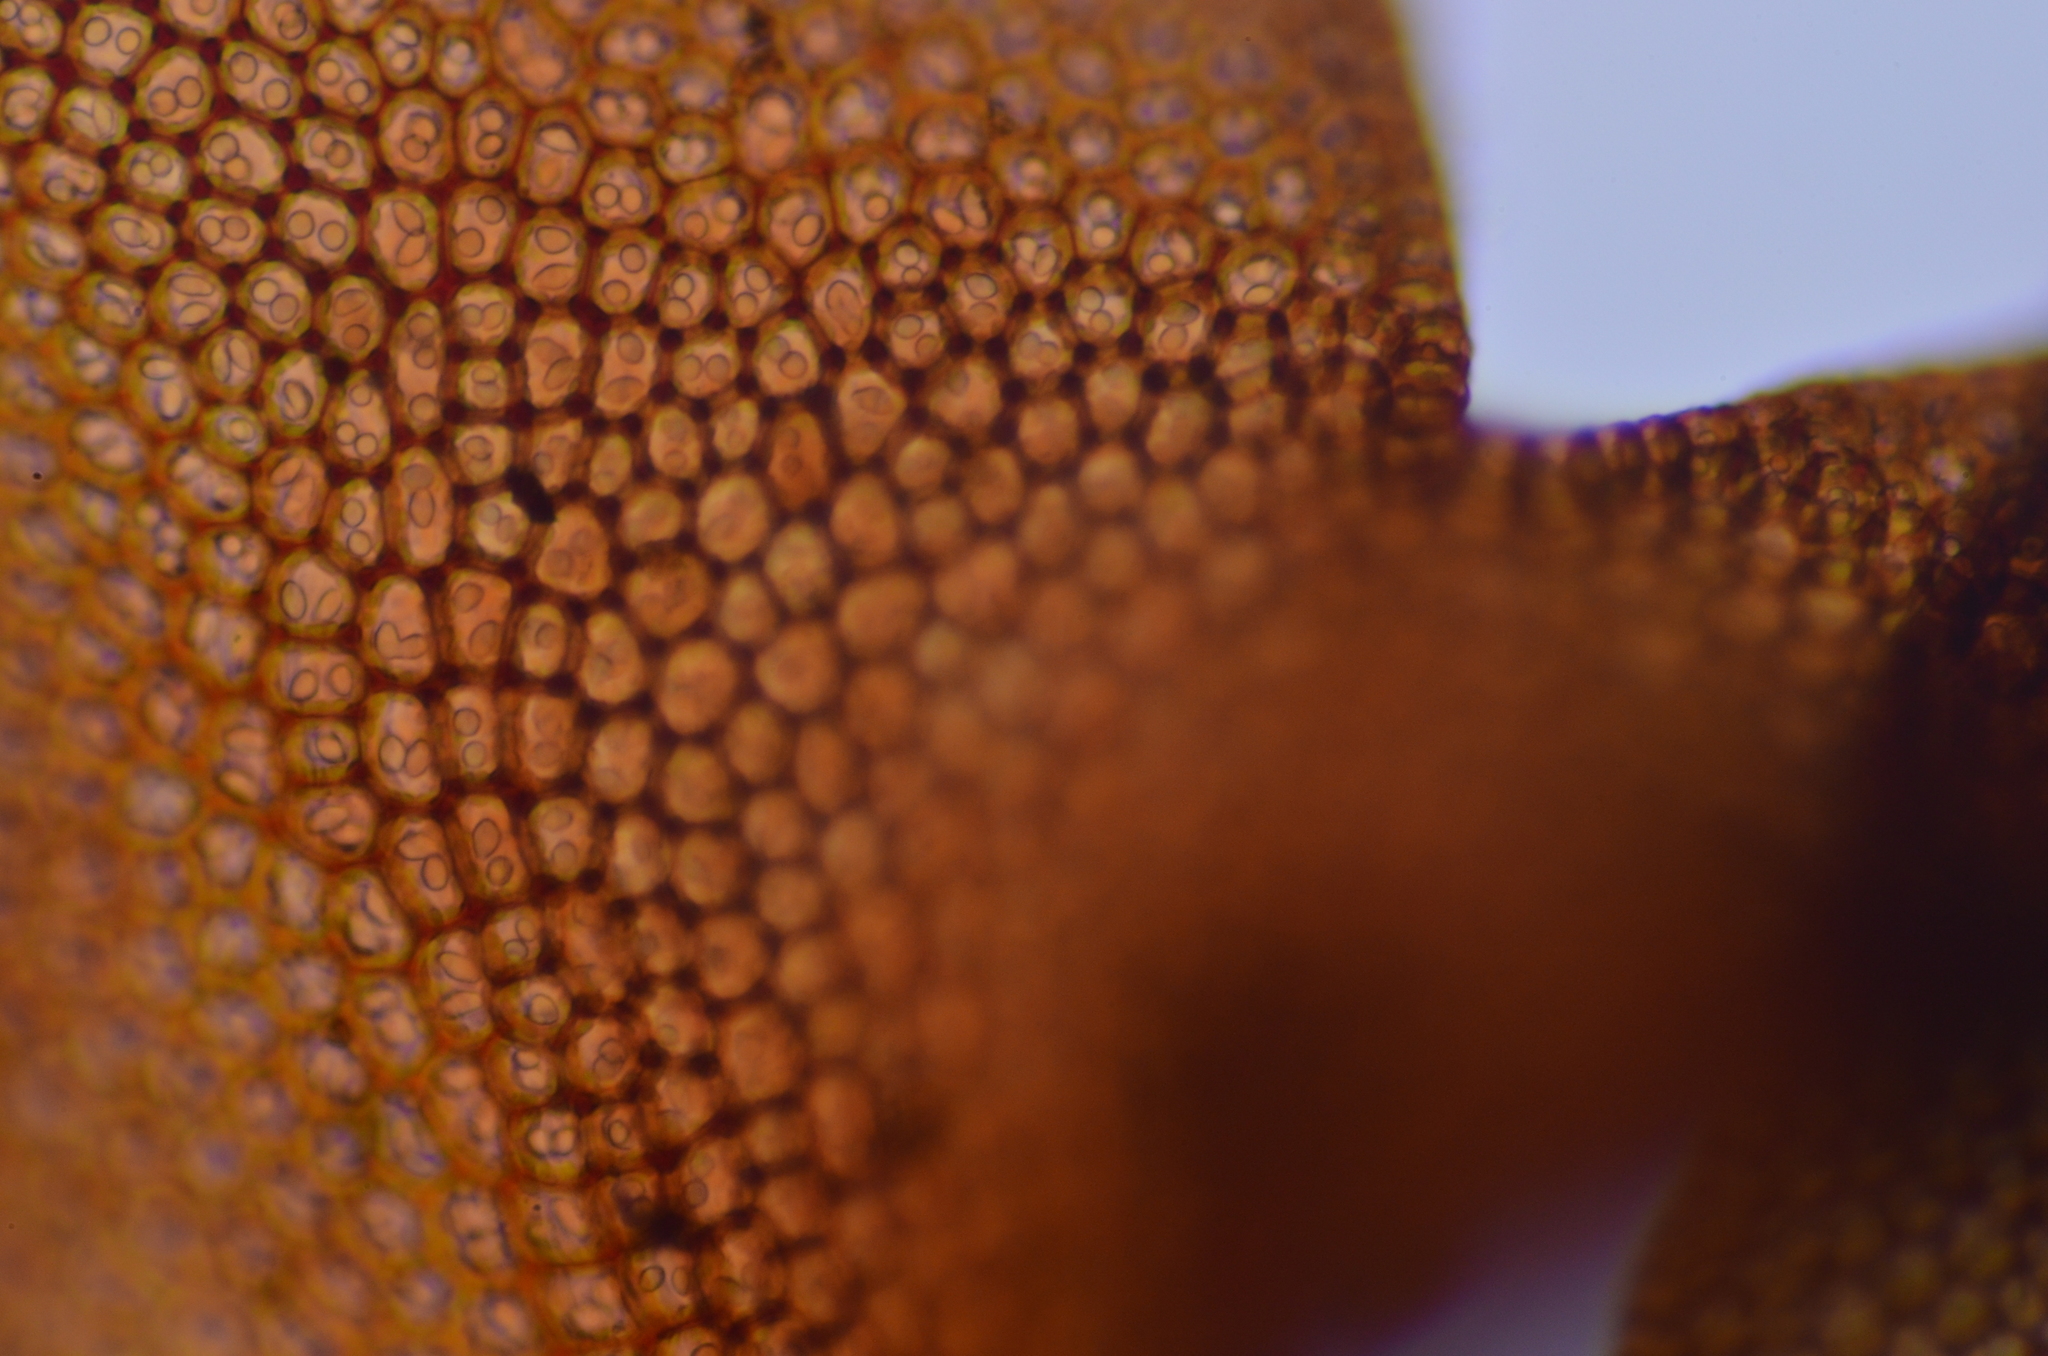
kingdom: Plantae
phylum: Marchantiophyta
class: Jungermanniopsida
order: Jungermanniales
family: Gymnomitriaceae
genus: Marsupella
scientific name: Marsupella emarginata
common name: Notched rustwort
